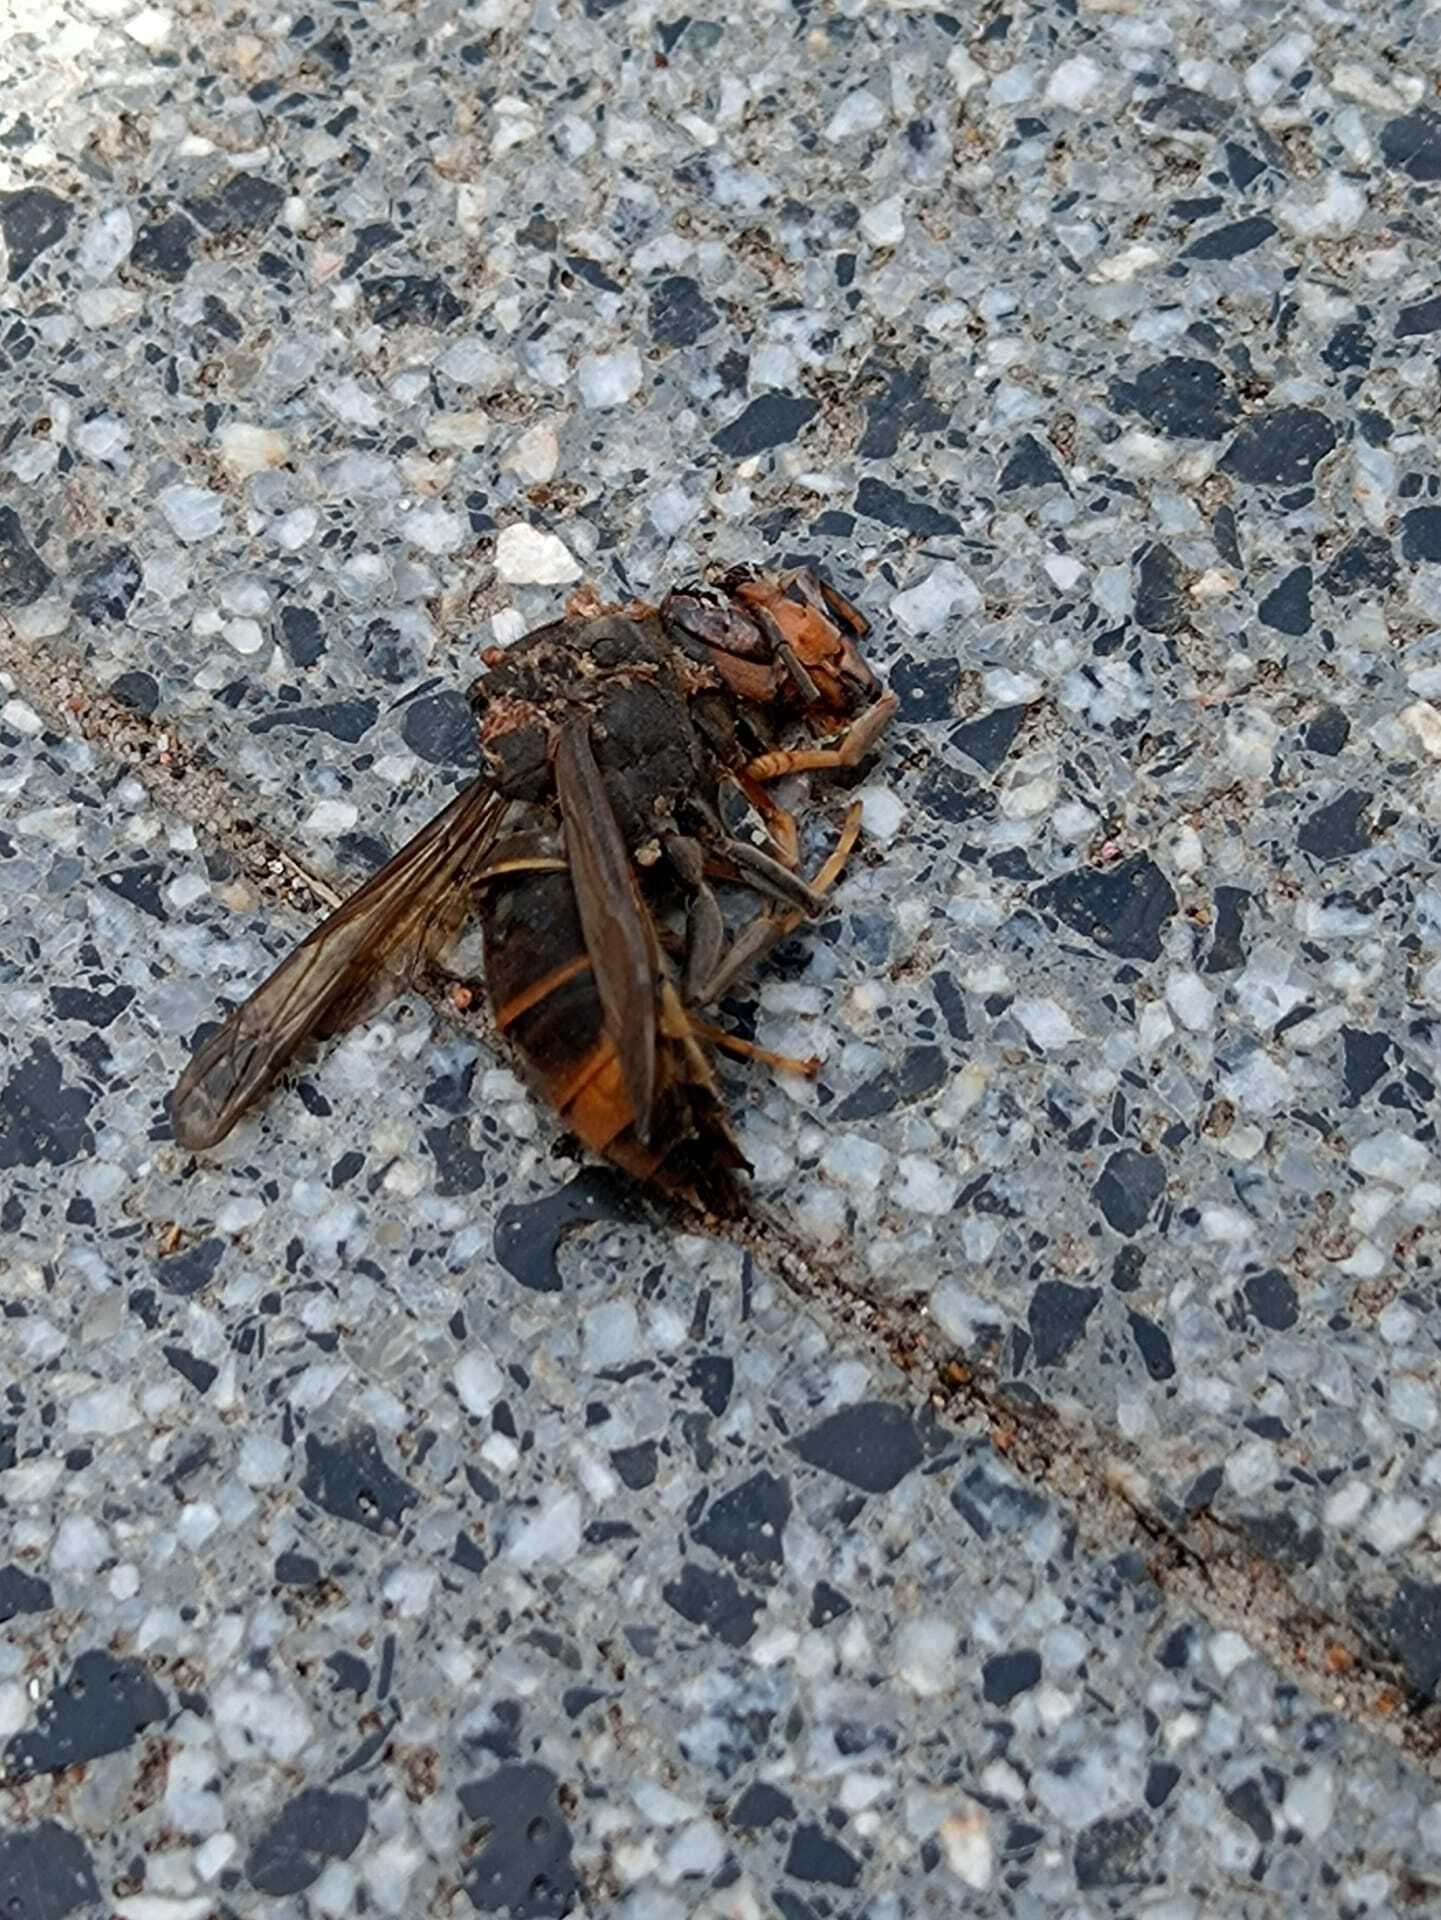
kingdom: Animalia
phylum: Arthropoda
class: Insecta
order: Hymenoptera
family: Vespidae
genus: Vespa
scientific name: Vespa velutina
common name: Asian hornet
